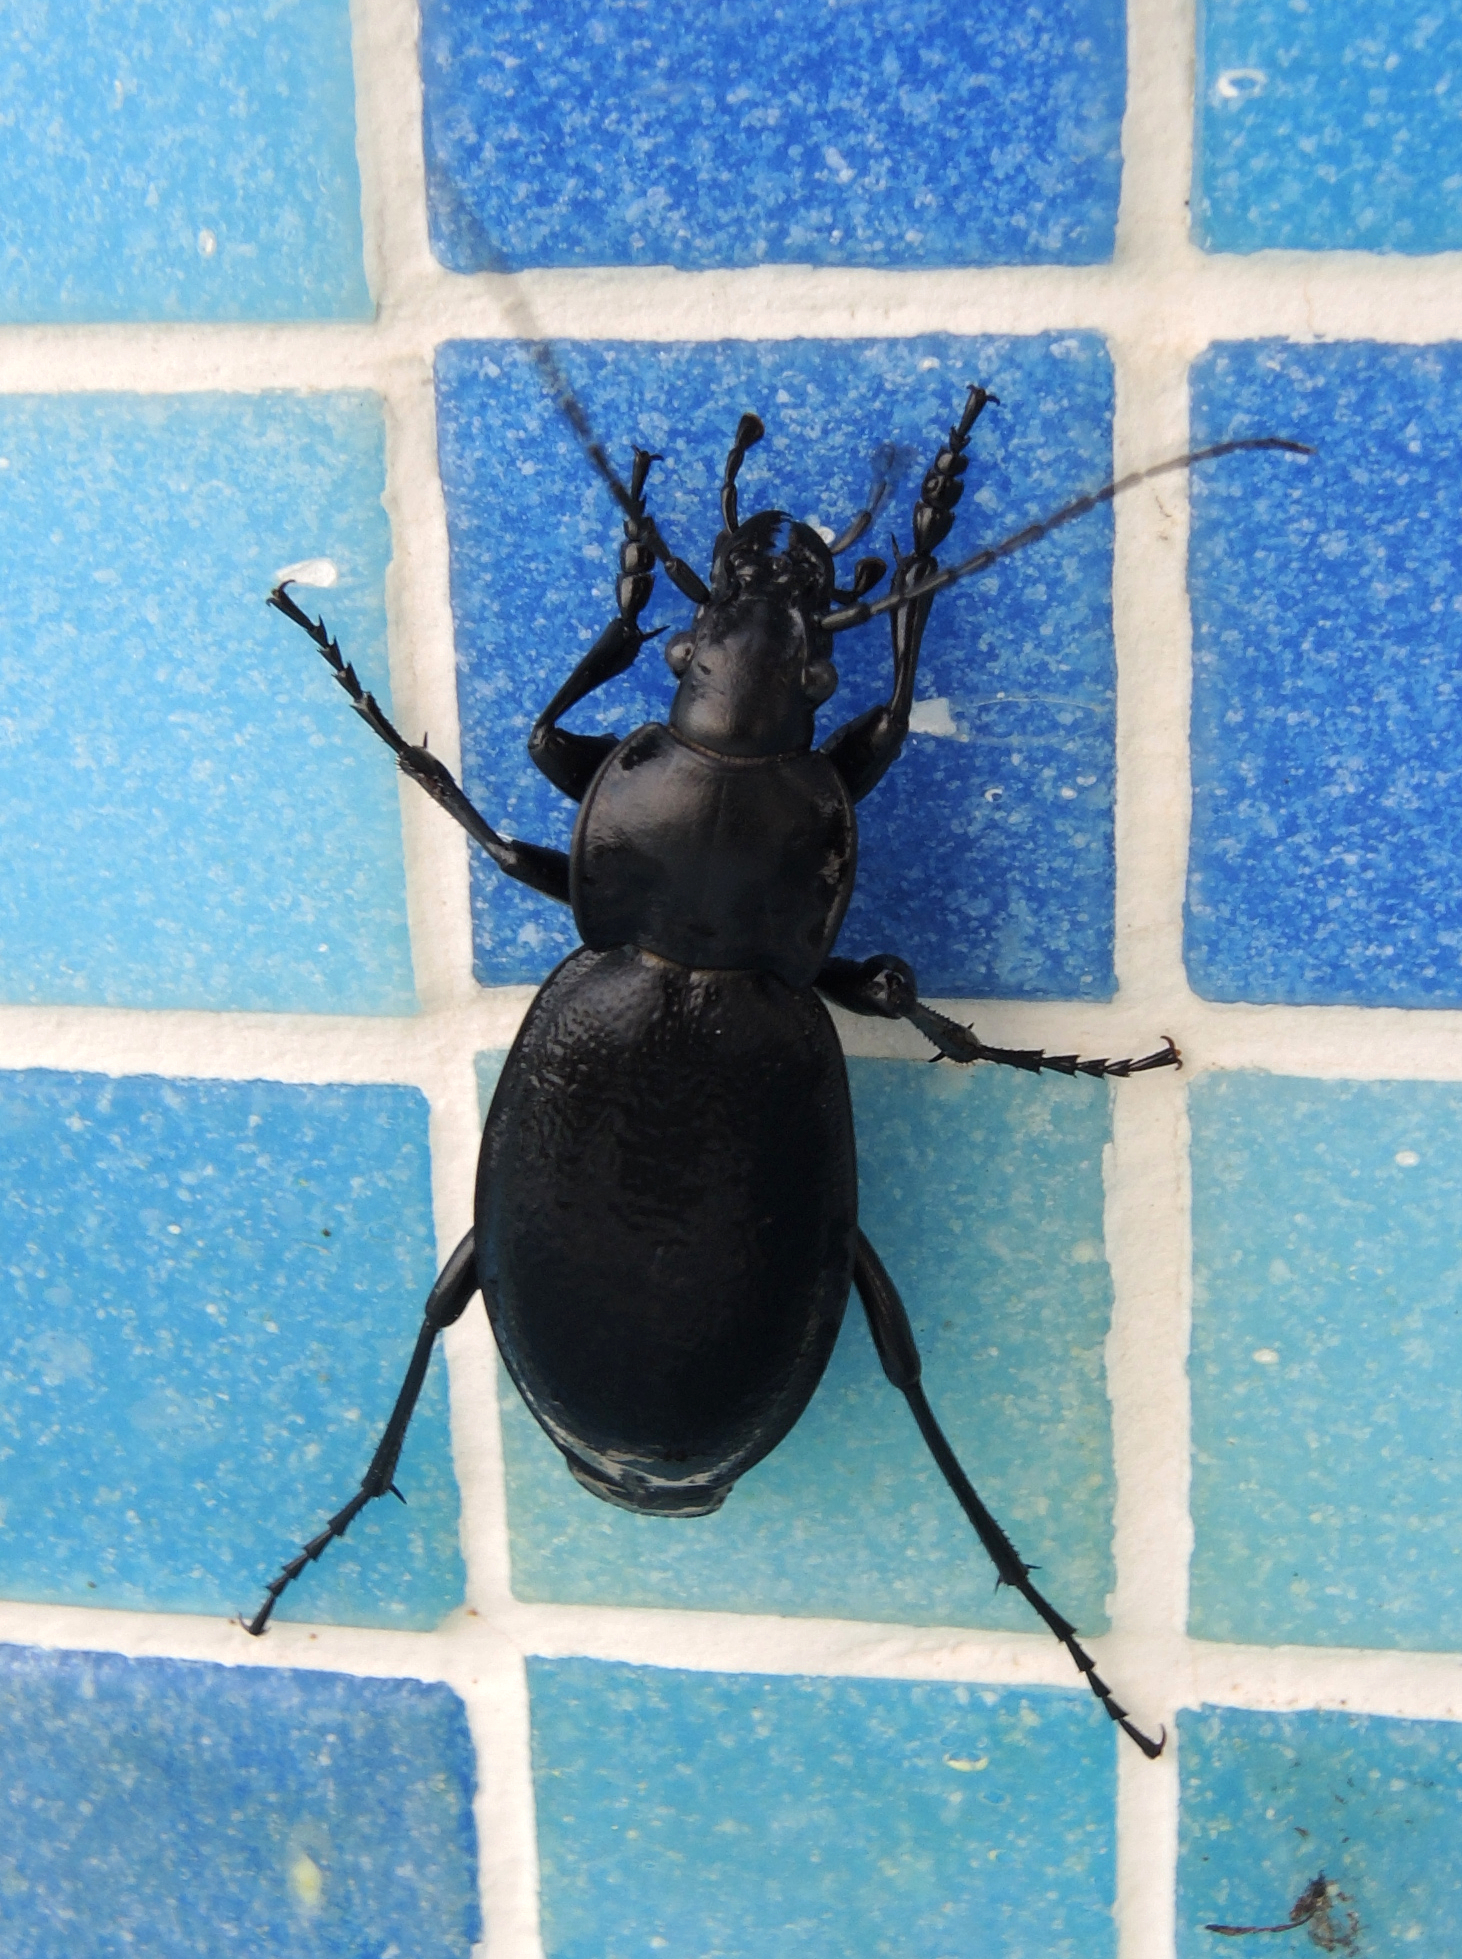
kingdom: Animalia
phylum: Arthropoda
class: Insecta
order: Coleoptera
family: Carabidae
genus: Carabus
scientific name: Carabus coriaceus
